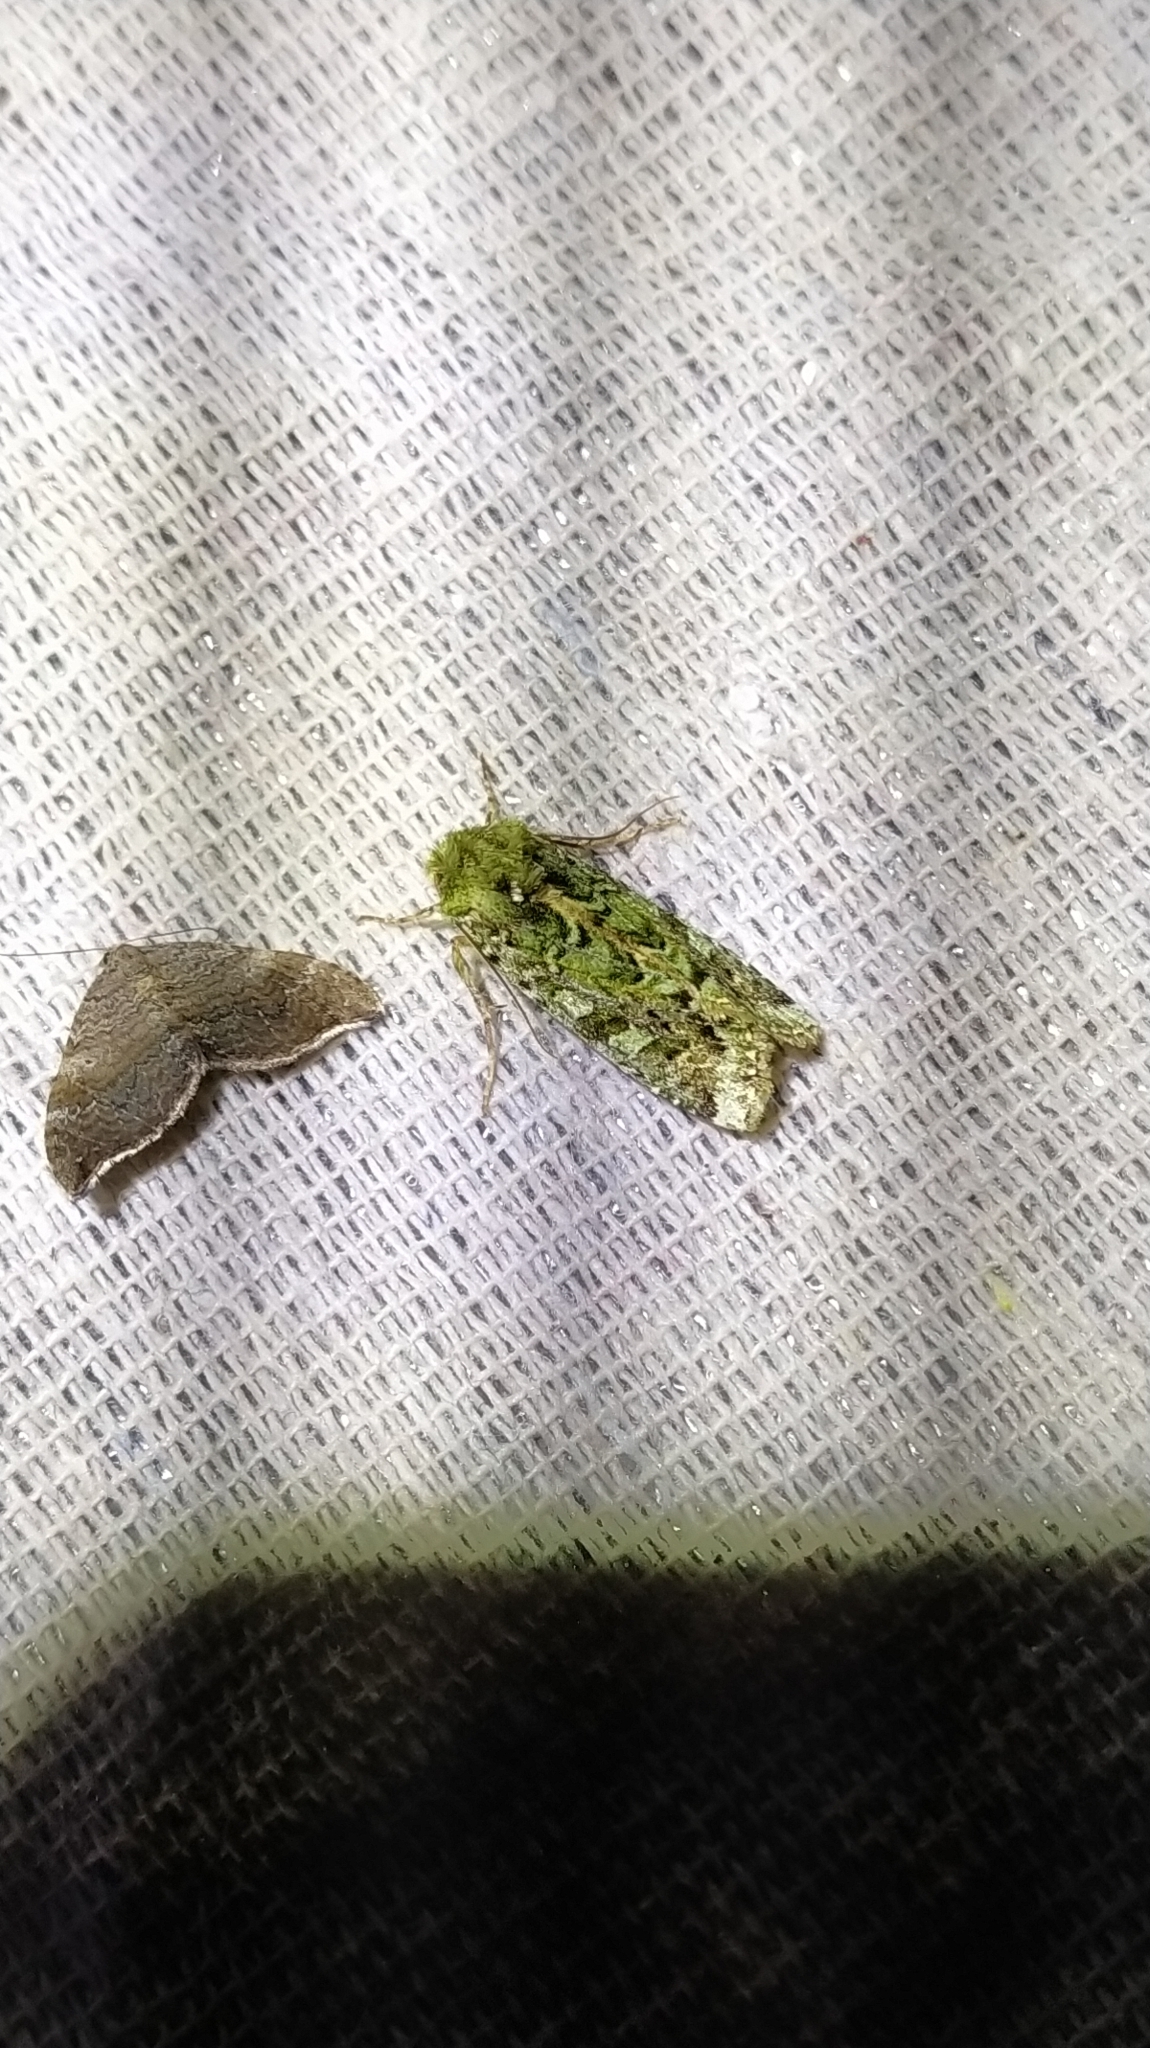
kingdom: Animalia
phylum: Arthropoda
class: Insecta
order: Lepidoptera
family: Noctuidae
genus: Feredayia
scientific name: Feredayia grammosa
